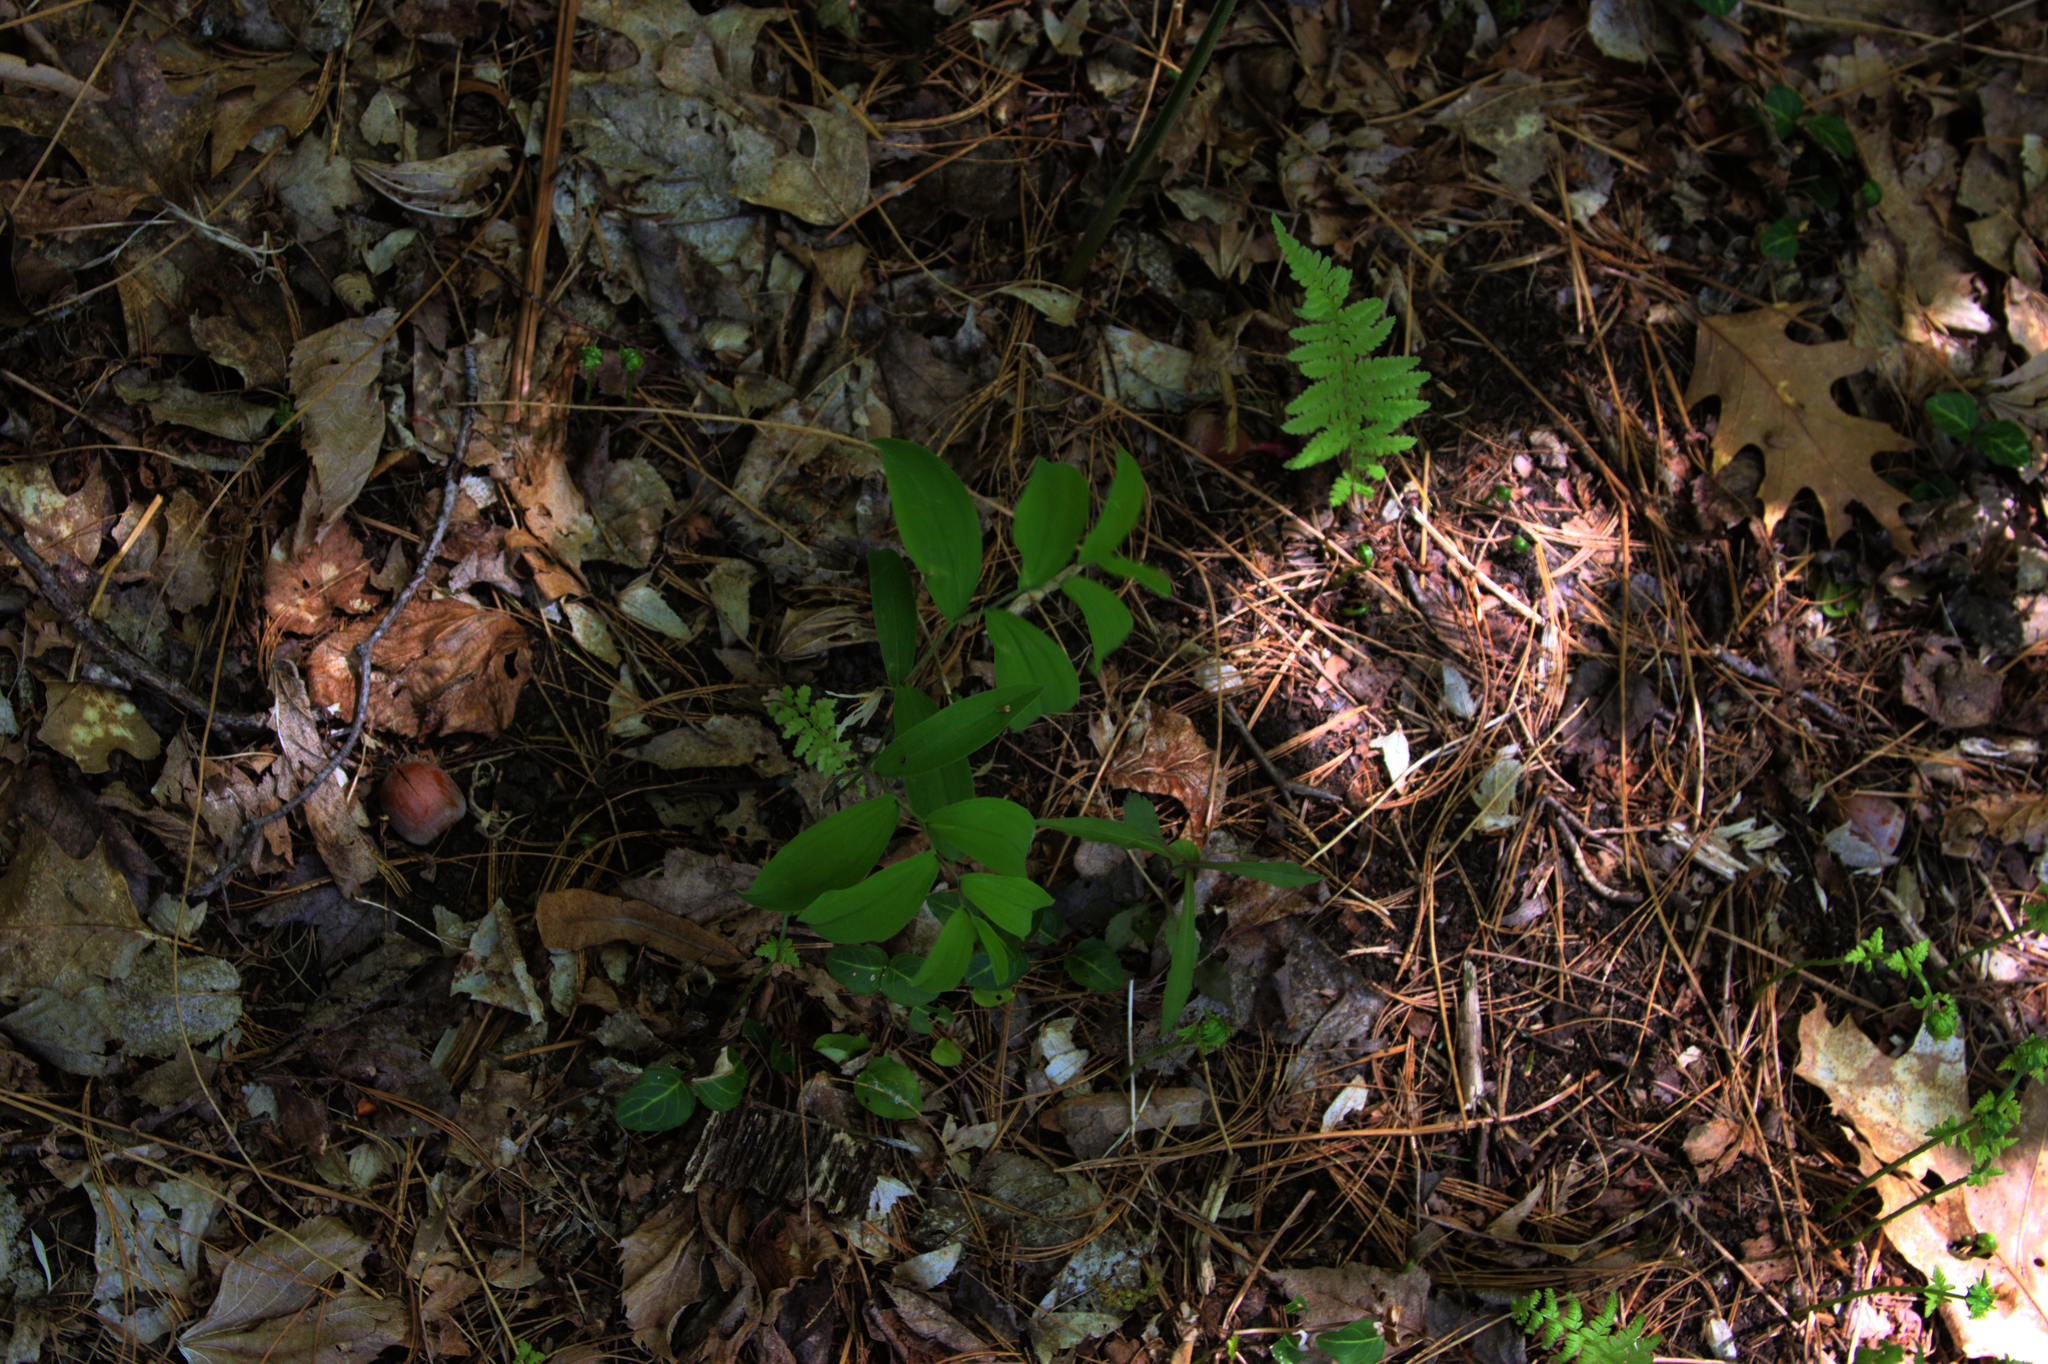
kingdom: Plantae
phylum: Tracheophyta
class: Liliopsida
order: Liliales
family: Colchicaceae
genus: Uvularia
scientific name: Uvularia sessilifolia
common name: Straw-lily
